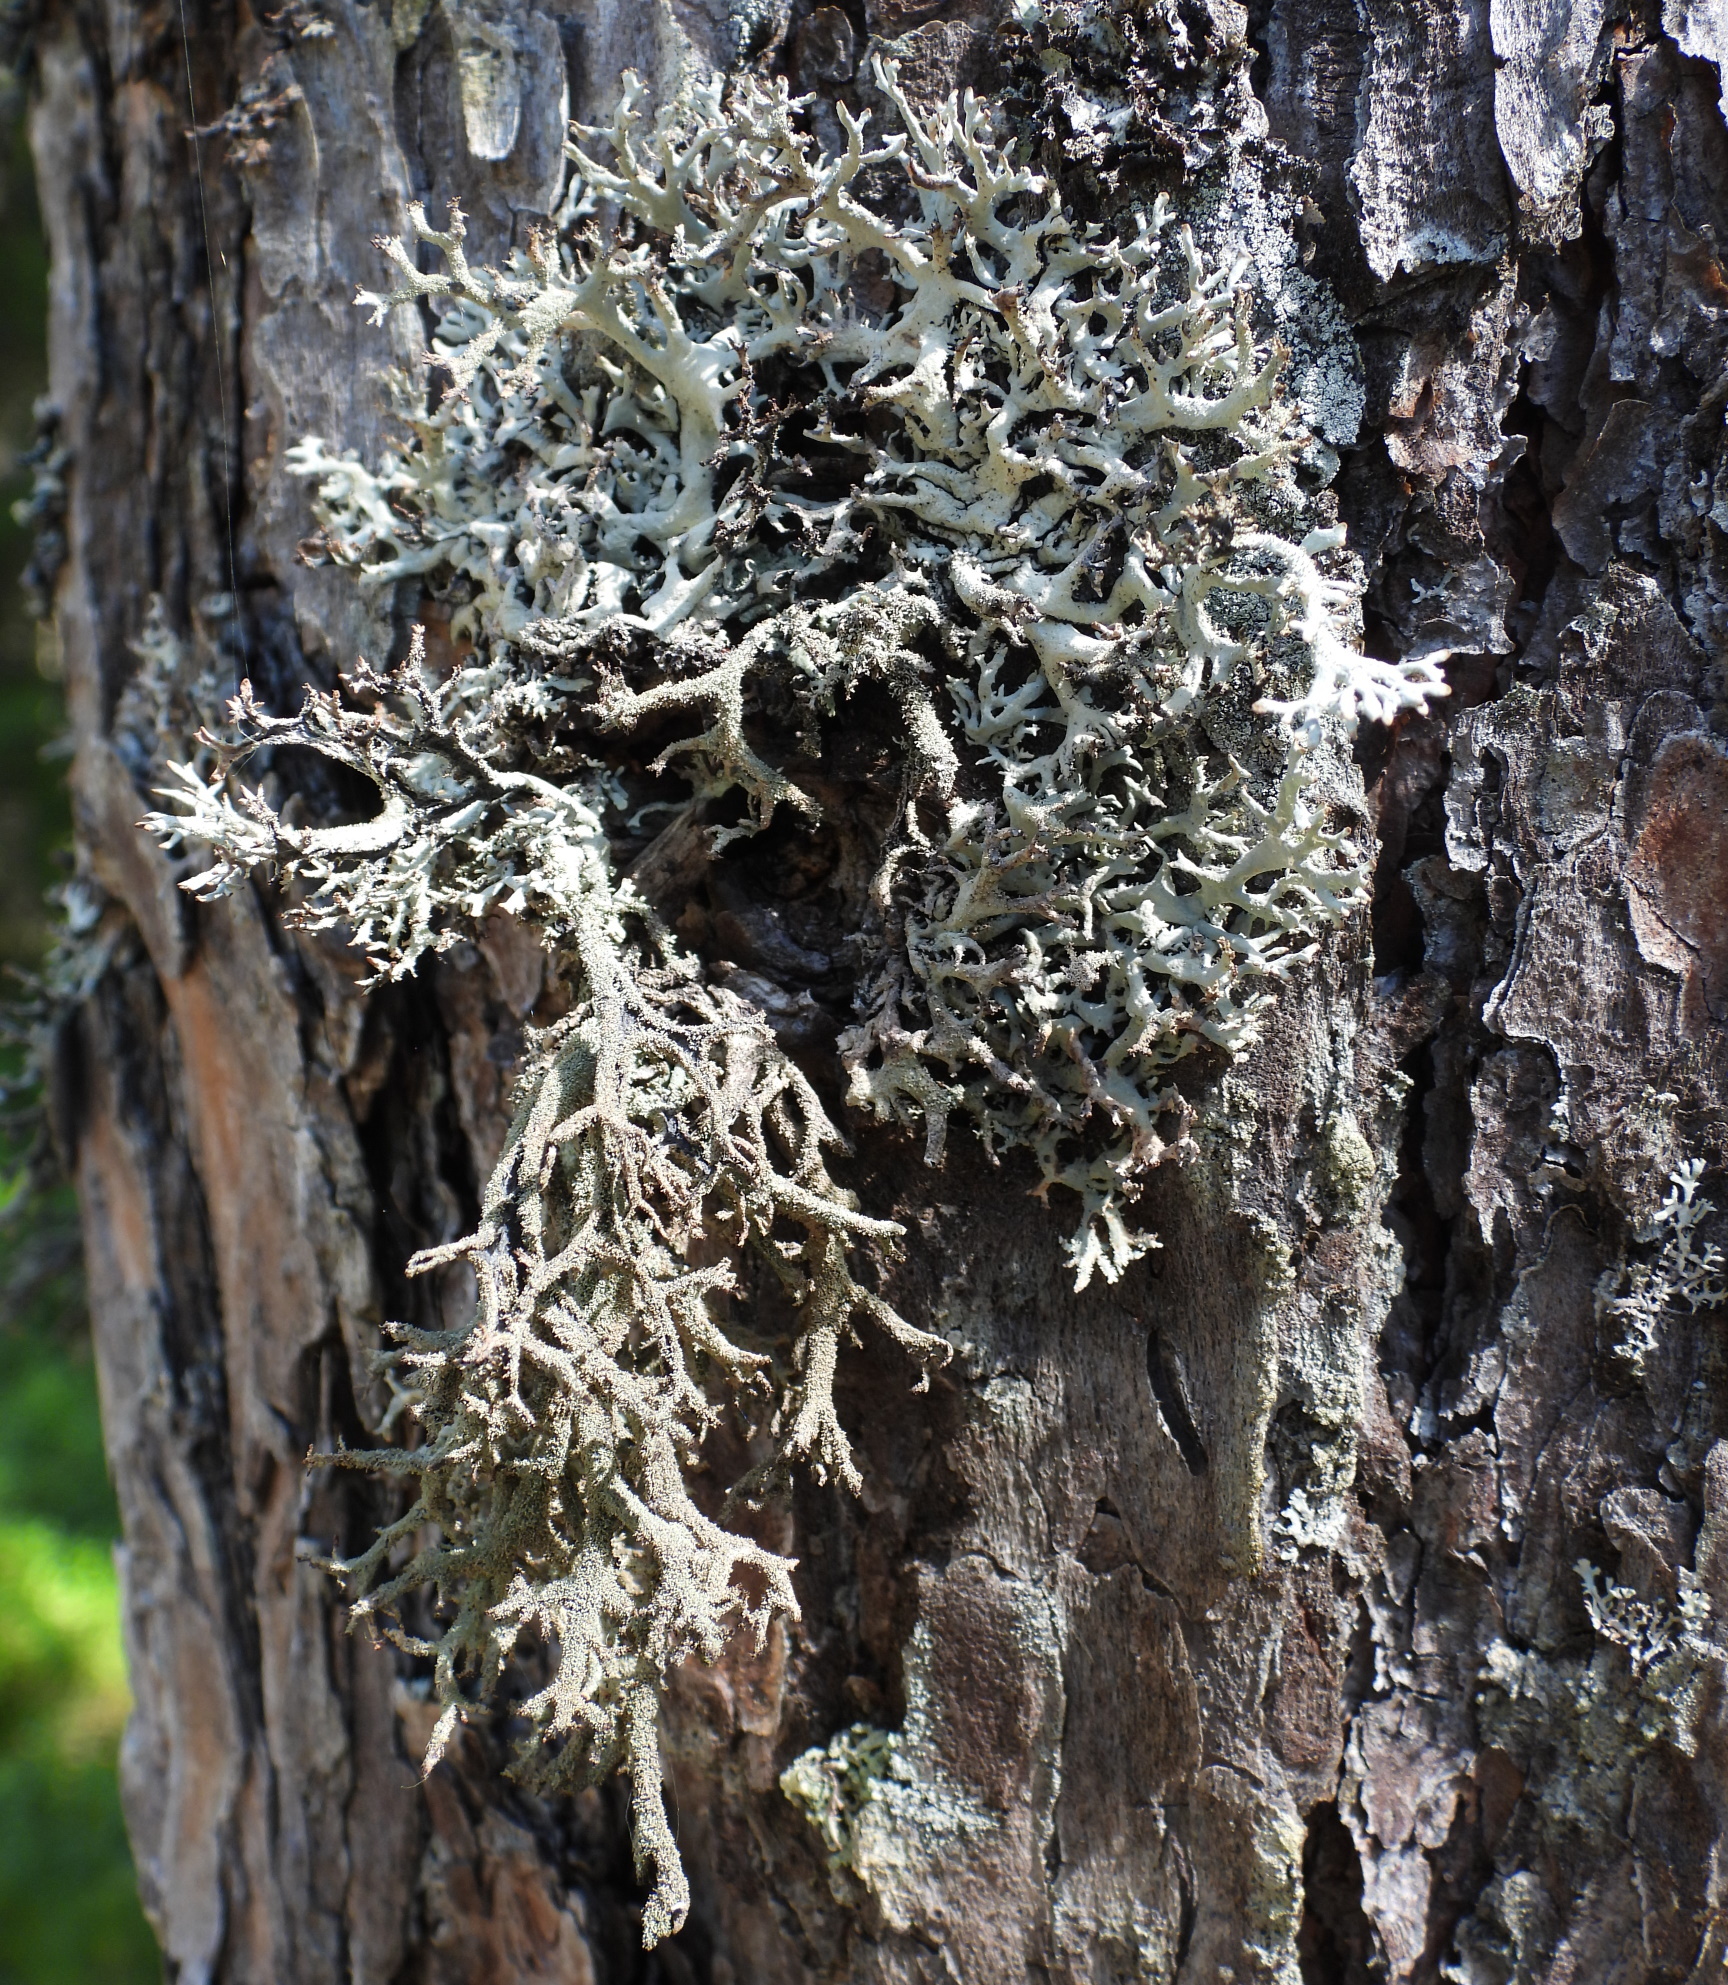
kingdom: Fungi
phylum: Ascomycota
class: Lecanoromycetes
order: Lecanorales
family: Parmeliaceae
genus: Pseudevernia
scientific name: Pseudevernia furfuracea
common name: Tree moss
